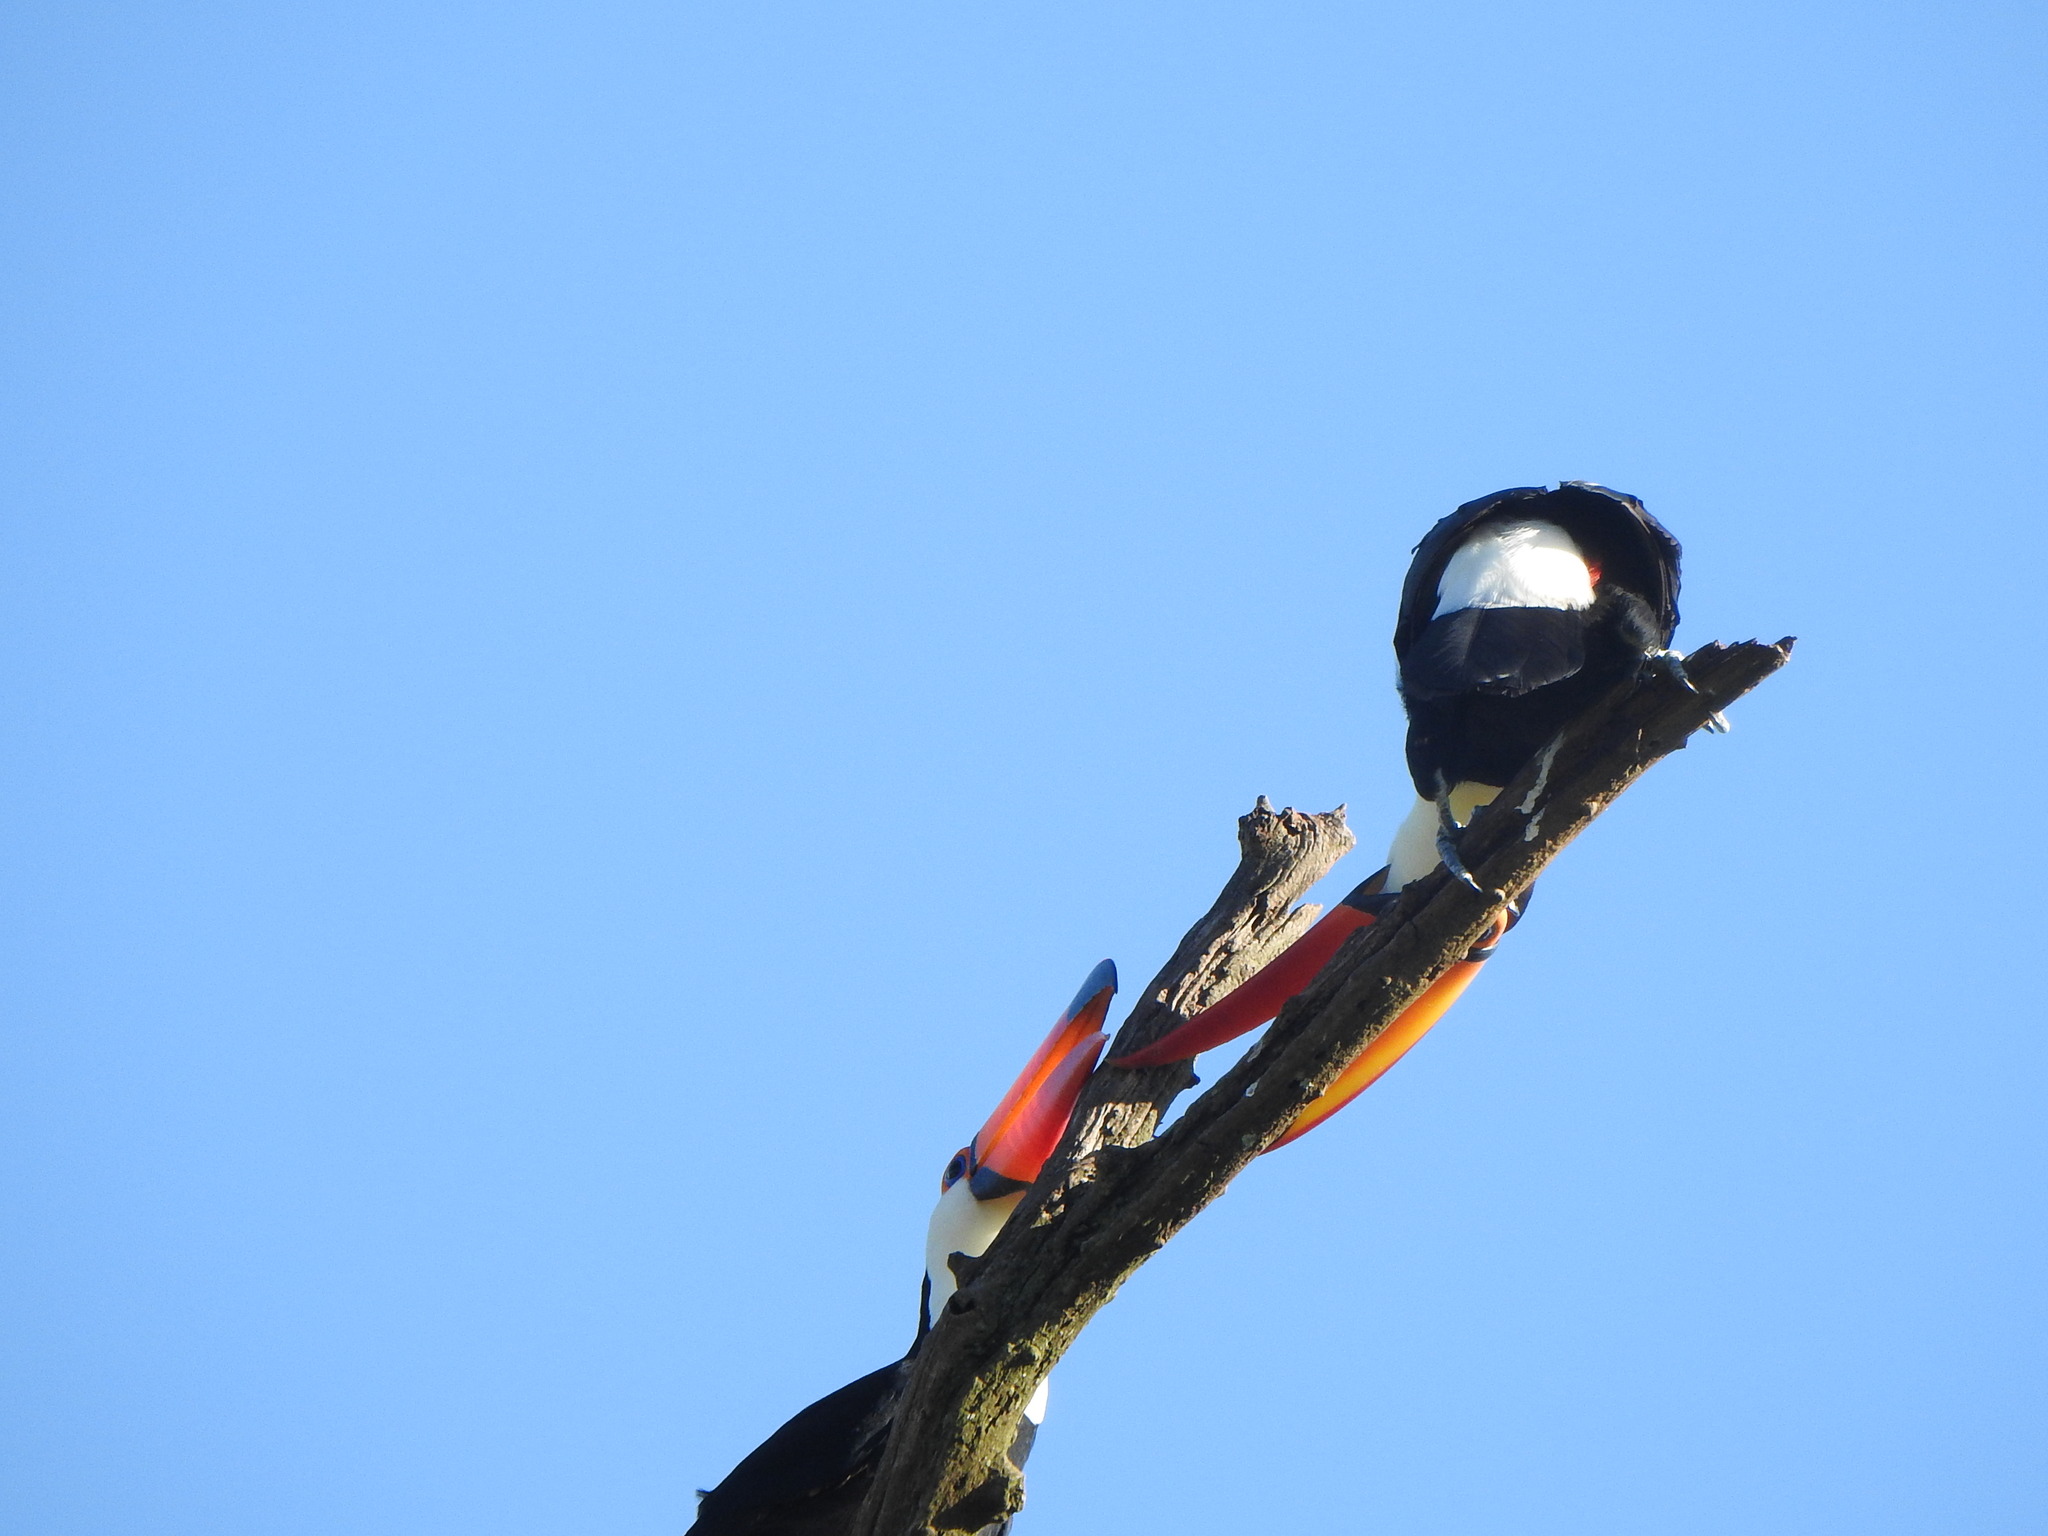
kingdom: Animalia
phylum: Chordata
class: Aves
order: Piciformes
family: Ramphastidae
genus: Ramphastos
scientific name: Ramphastos toco
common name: Toco toucan
